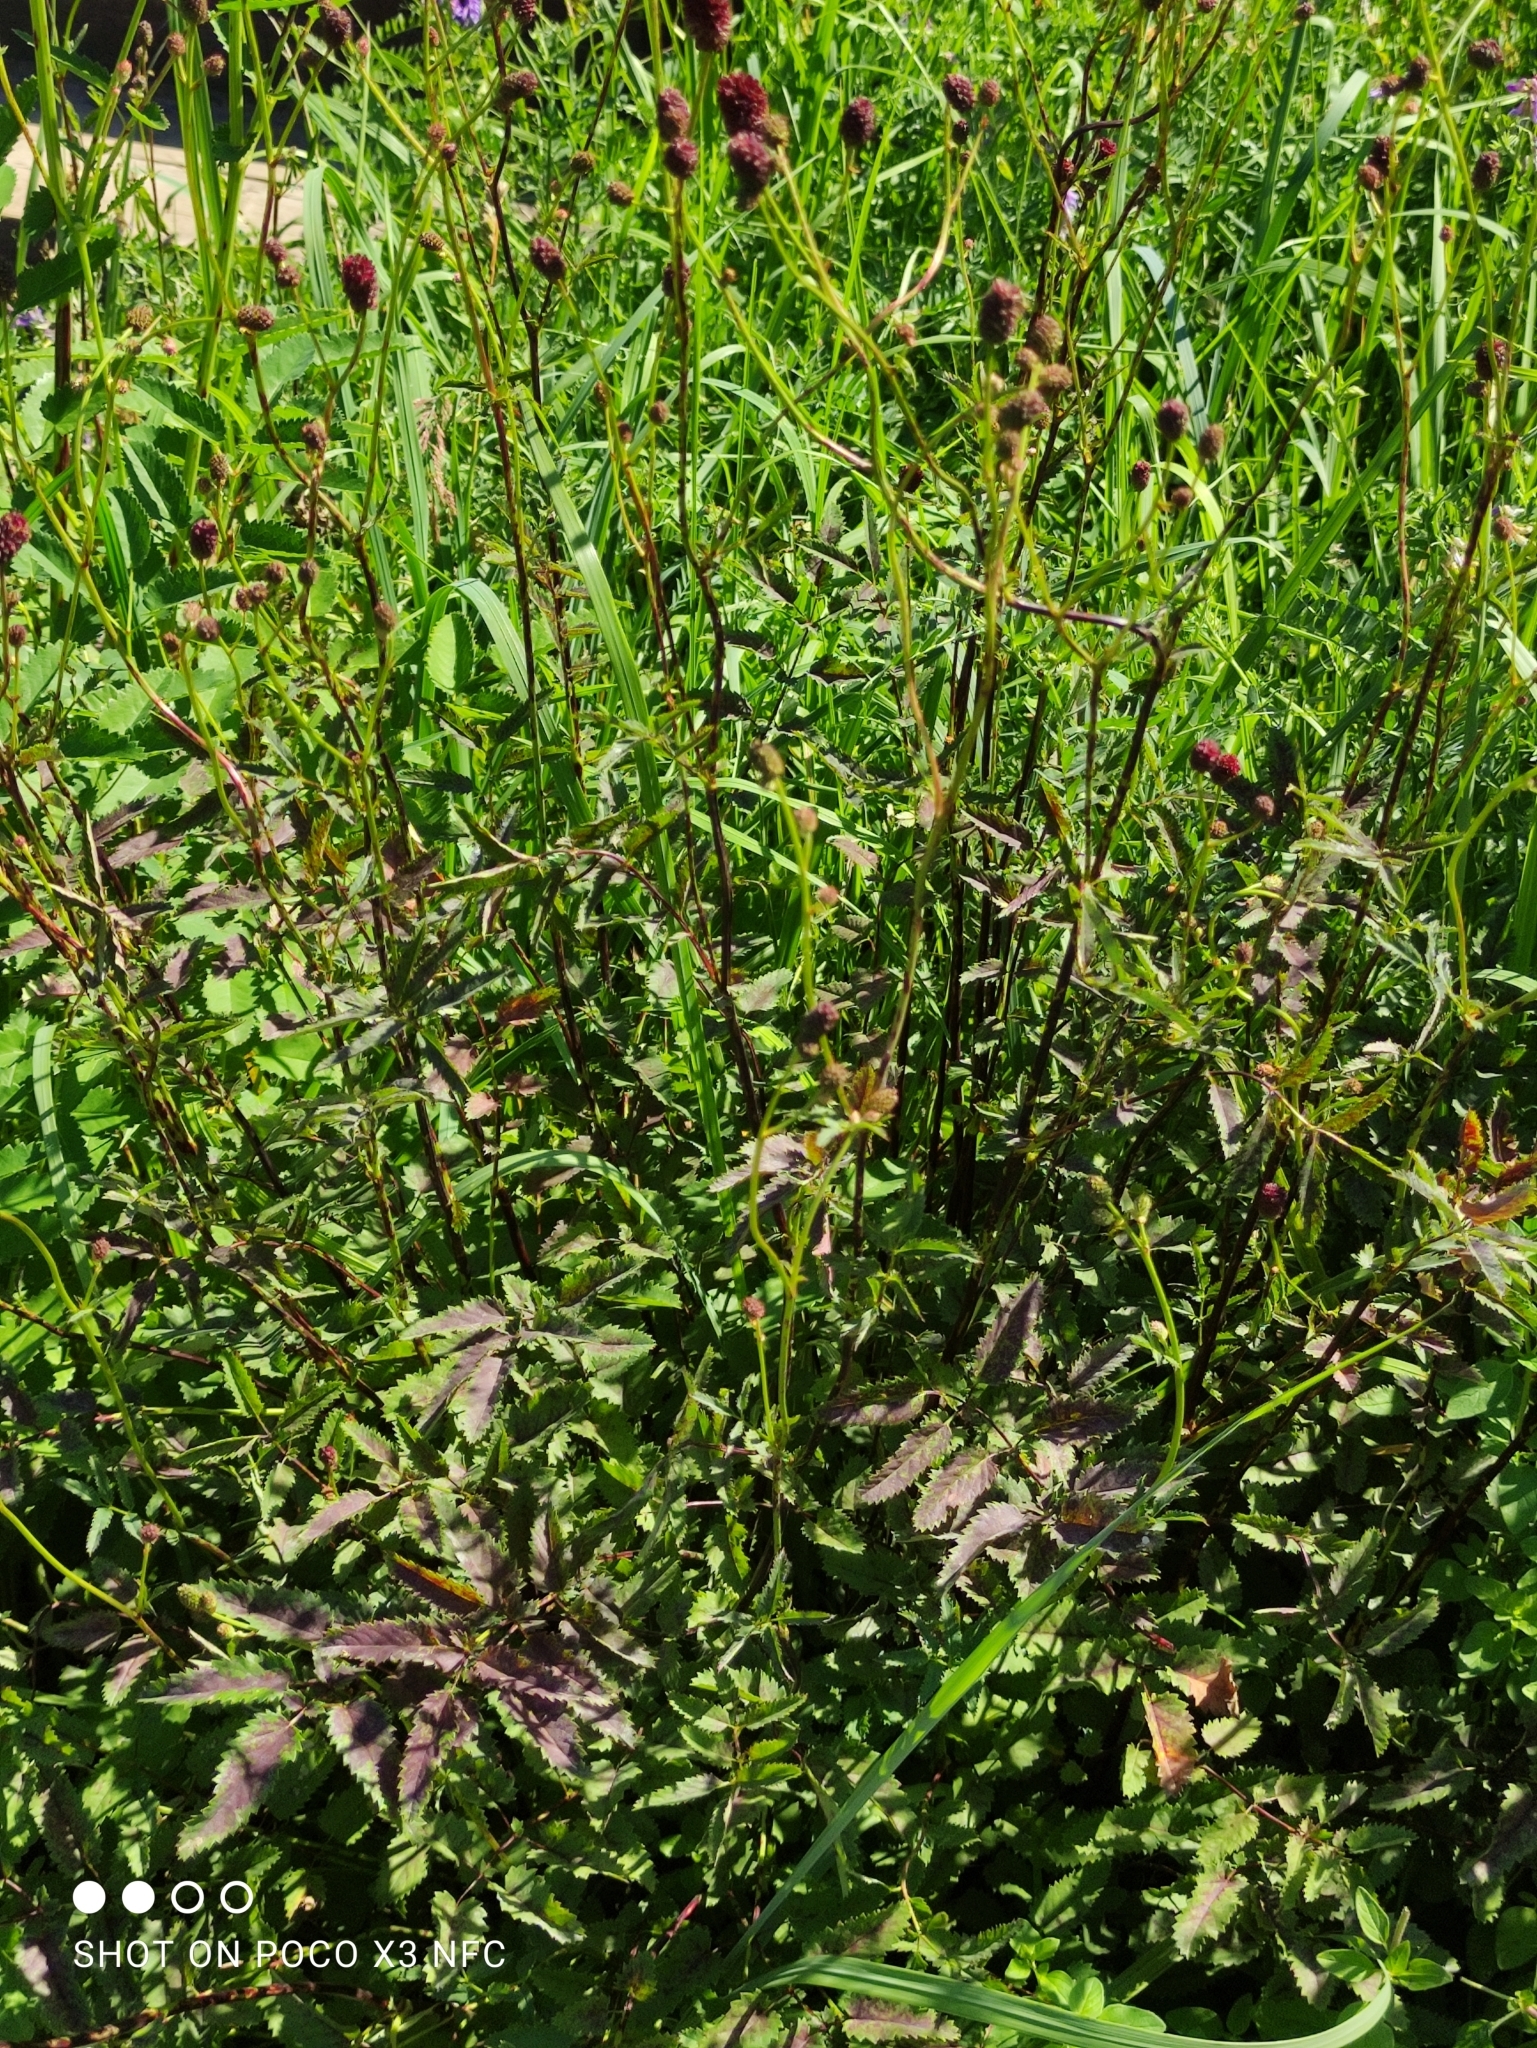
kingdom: Plantae
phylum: Tracheophyta
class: Magnoliopsida
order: Rosales
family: Rosaceae
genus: Sanguisorba
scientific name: Sanguisorba officinalis
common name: Great burnet
